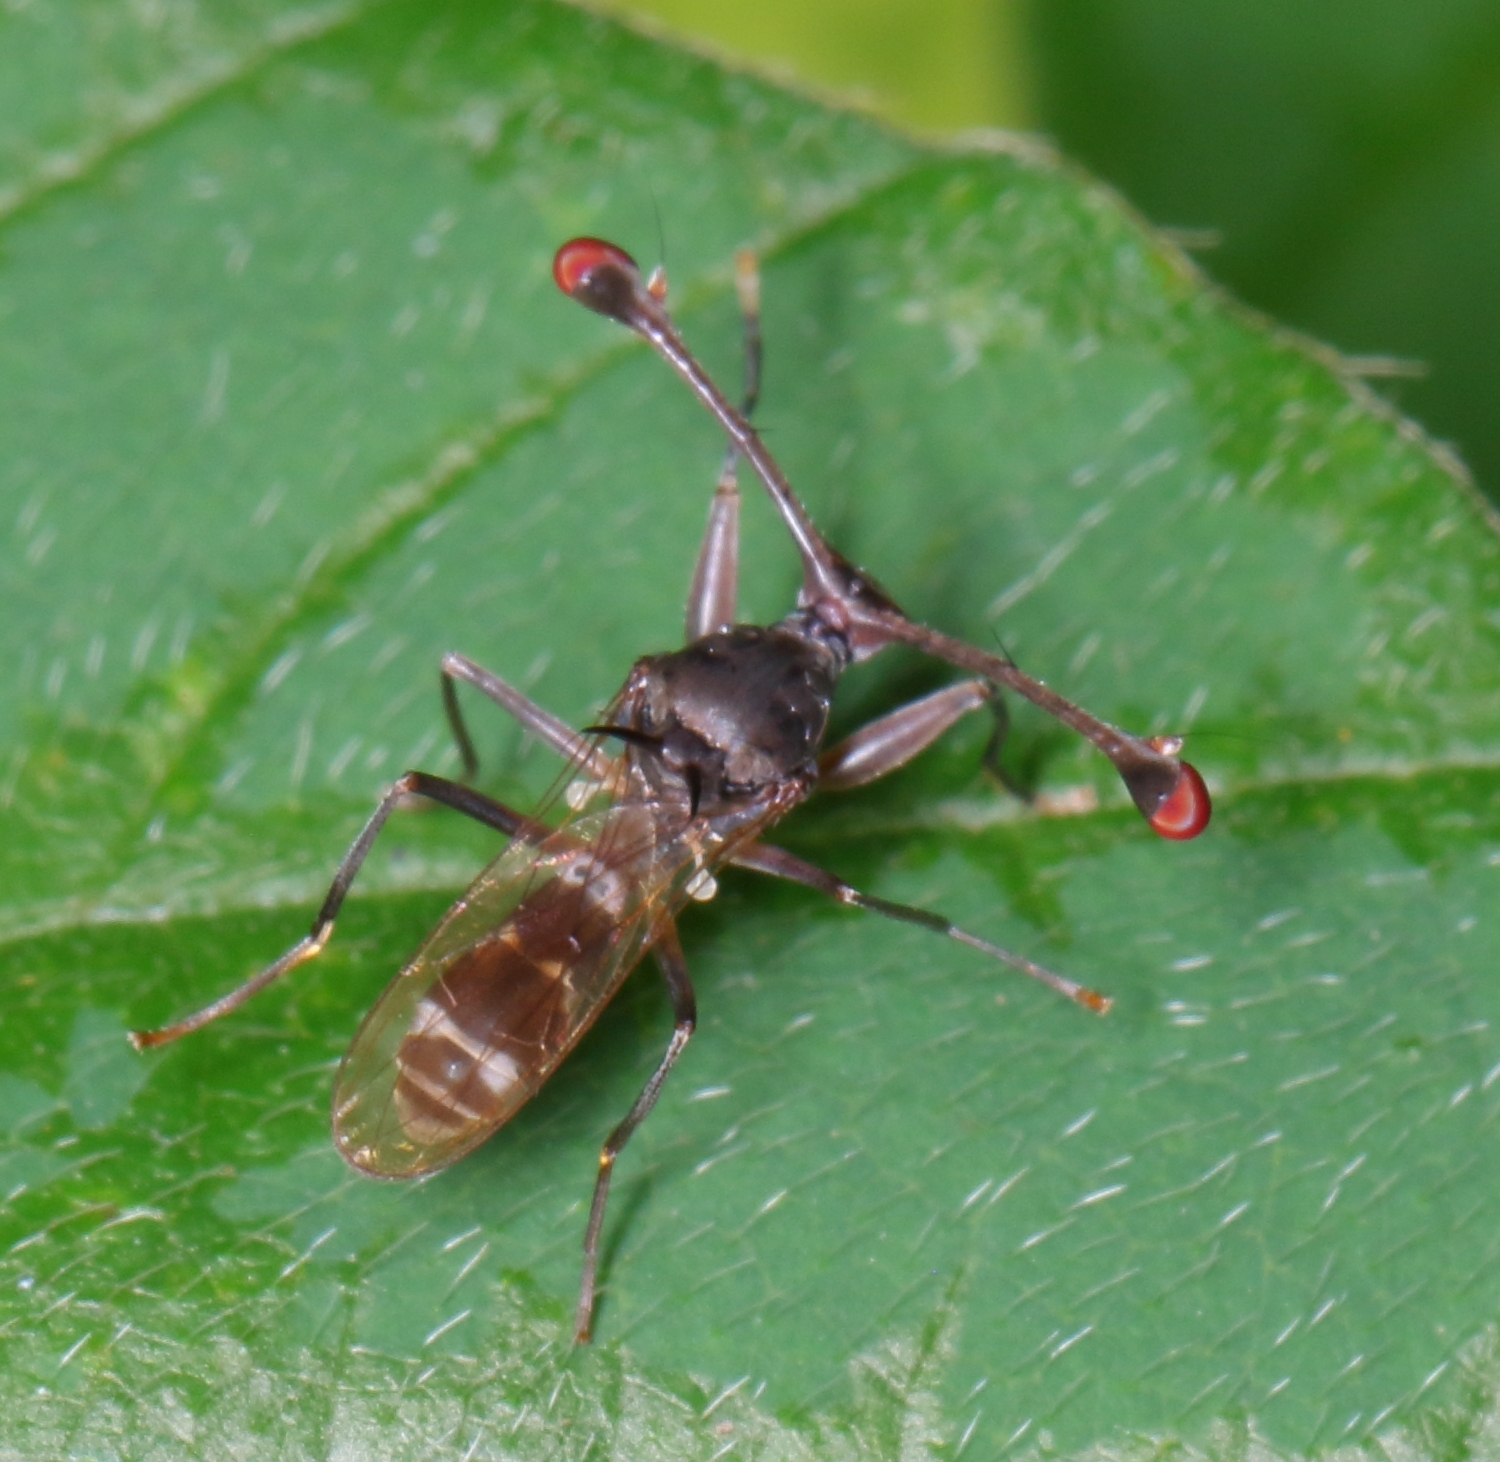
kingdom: Animalia
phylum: Arthropoda
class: Insecta
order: Diptera
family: Diopsidae
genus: Diasemopsis
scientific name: Diasemopsis dubia
